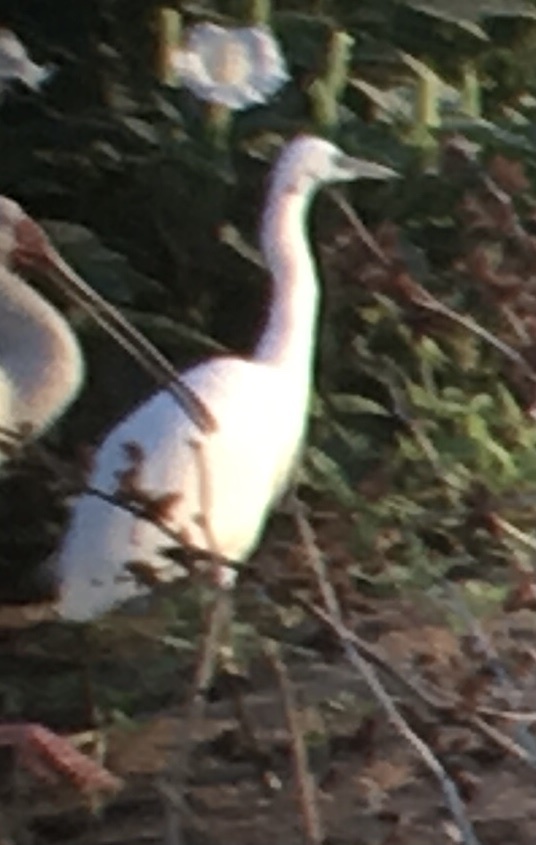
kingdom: Animalia
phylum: Chordata
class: Aves
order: Pelecaniformes
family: Ardeidae
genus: Egretta
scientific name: Egretta garzetta
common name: Little egret
